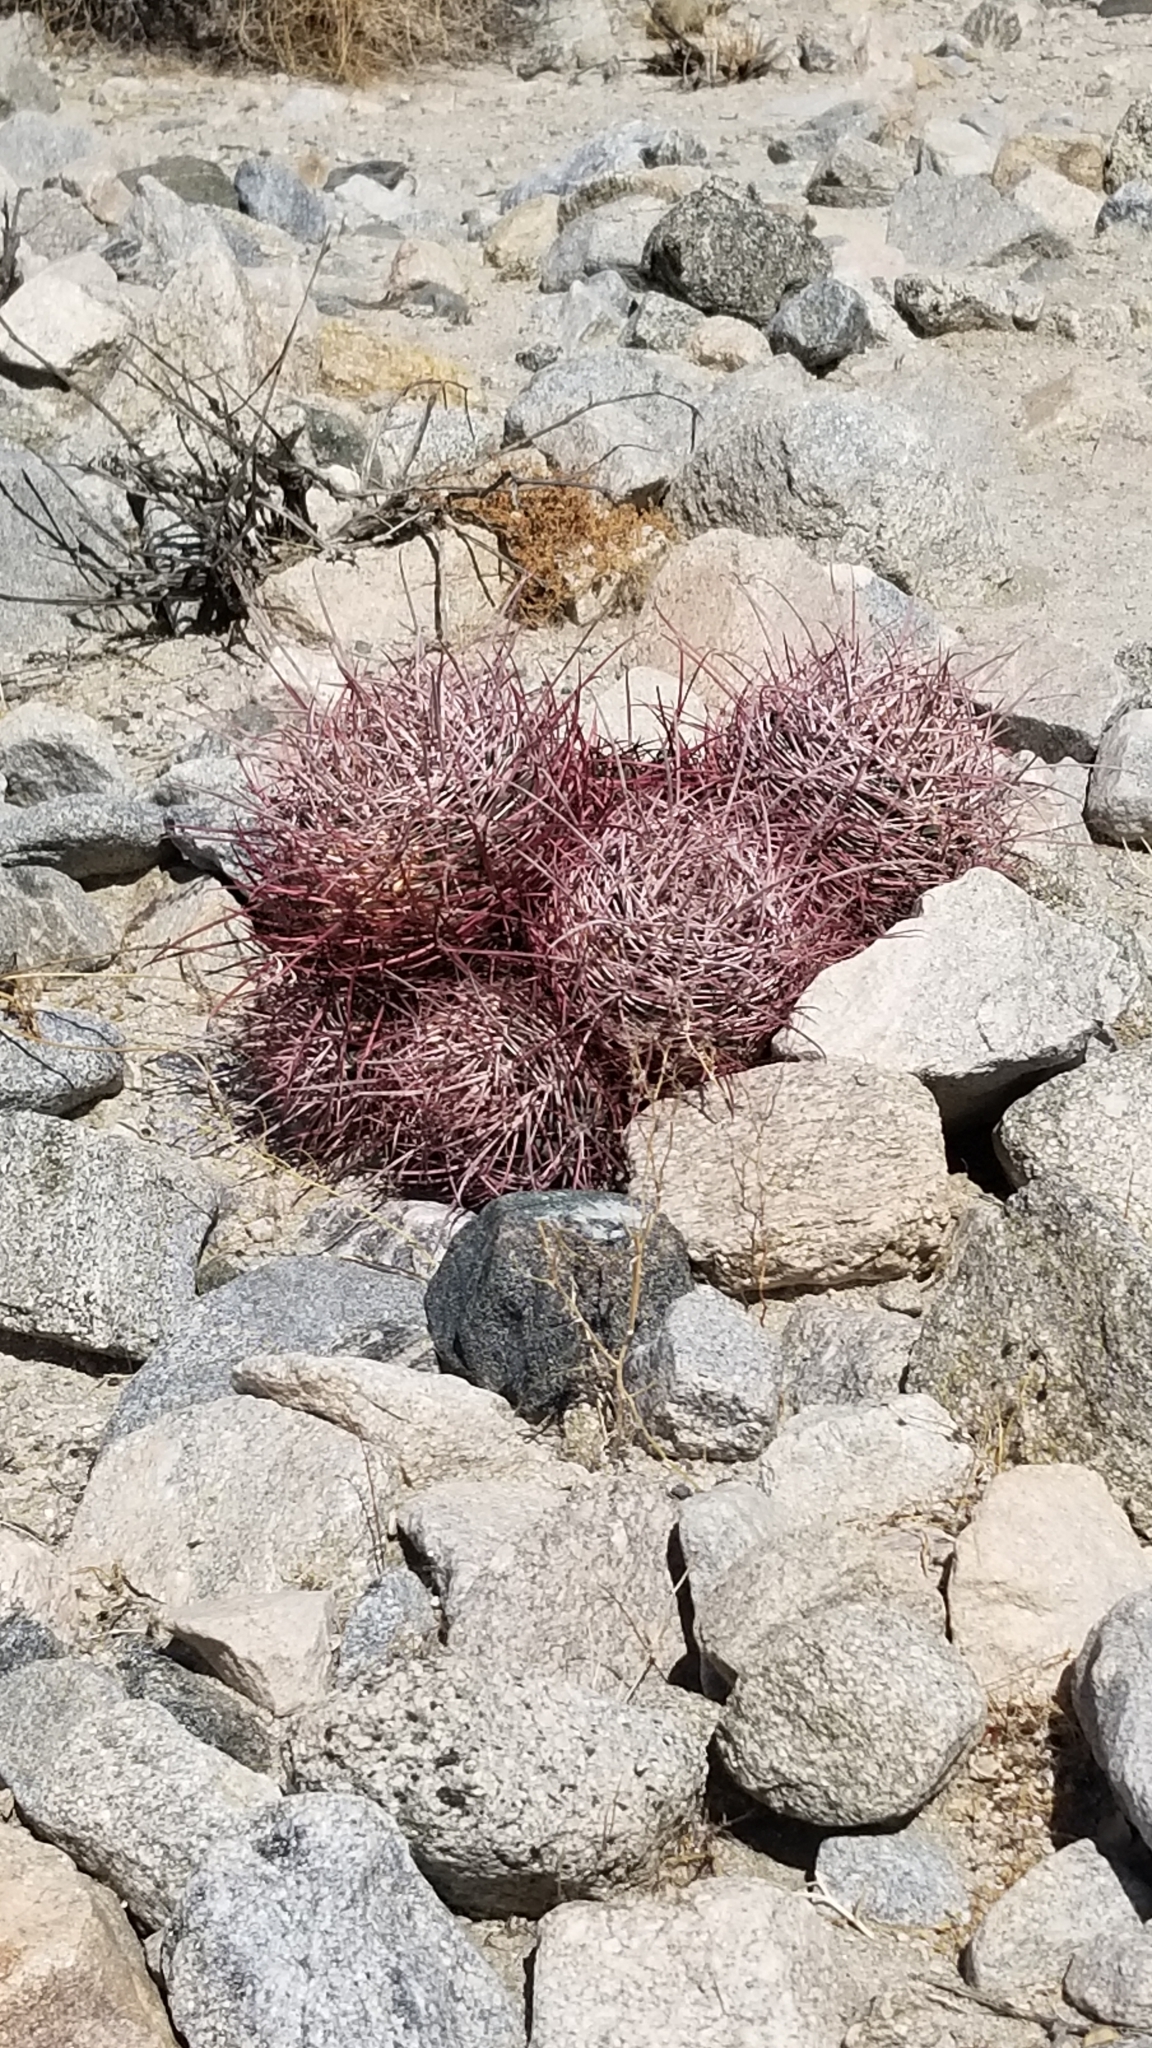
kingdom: Plantae
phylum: Tracheophyta
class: Magnoliopsida
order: Caryophyllales
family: Cactaceae
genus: Ferocactus
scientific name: Ferocactus cylindraceus
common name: California barrel cactus
